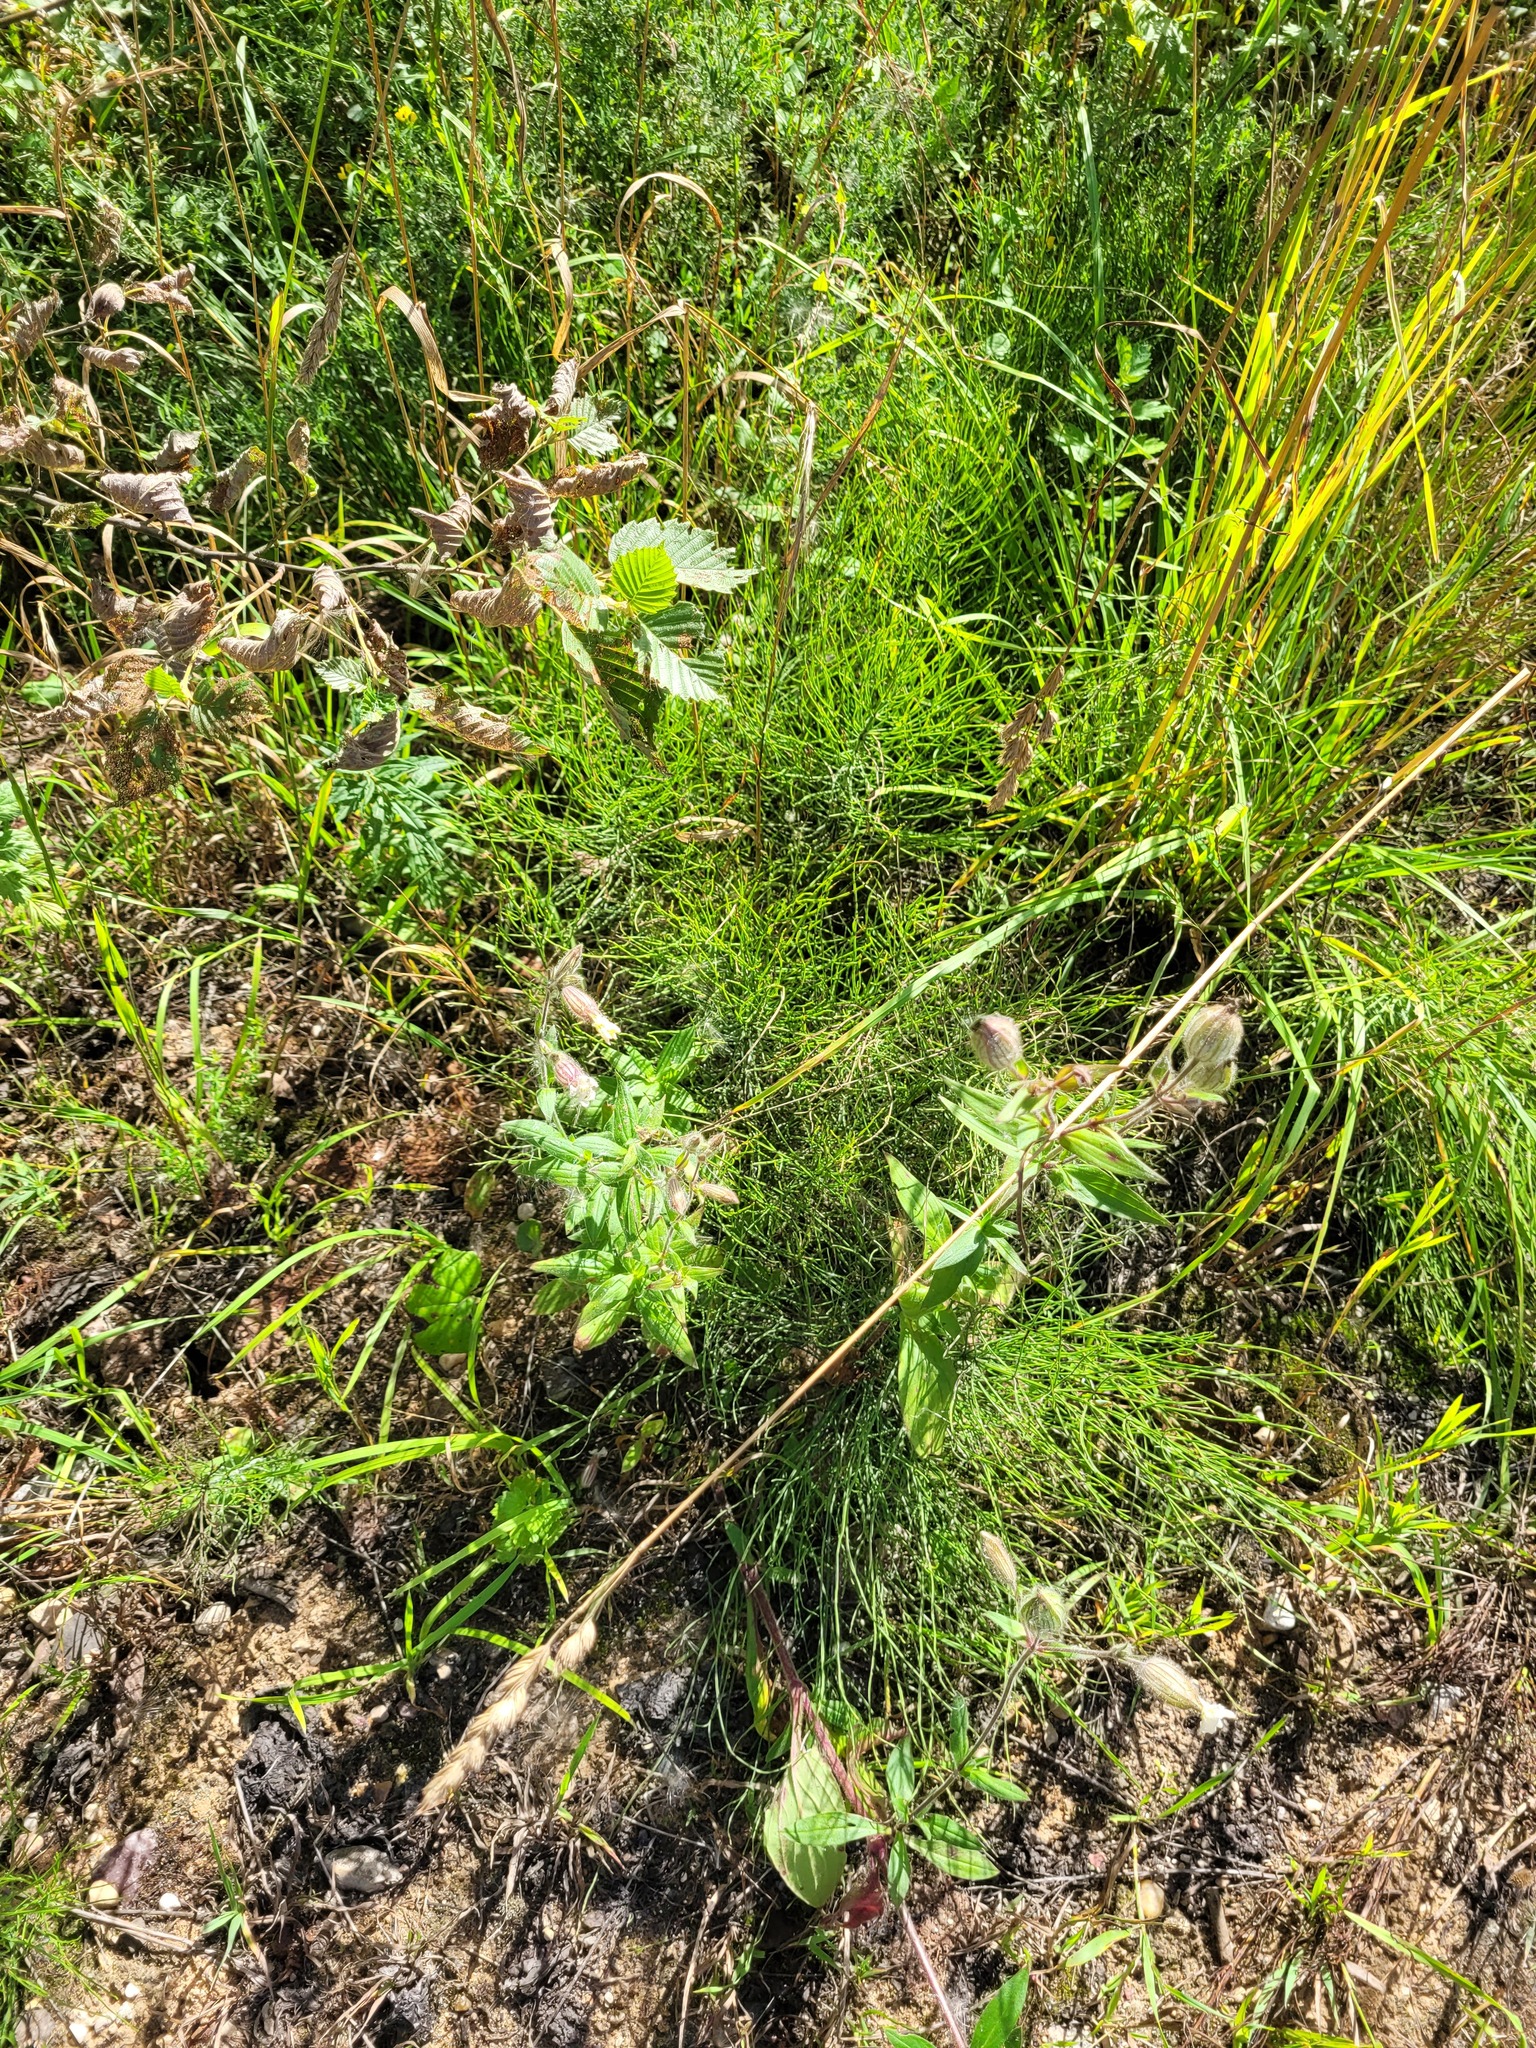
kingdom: Plantae
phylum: Tracheophyta
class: Magnoliopsida
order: Caryophyllales
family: Caryophyllaceae
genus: Silene
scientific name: Silene latifolia
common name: White campion
